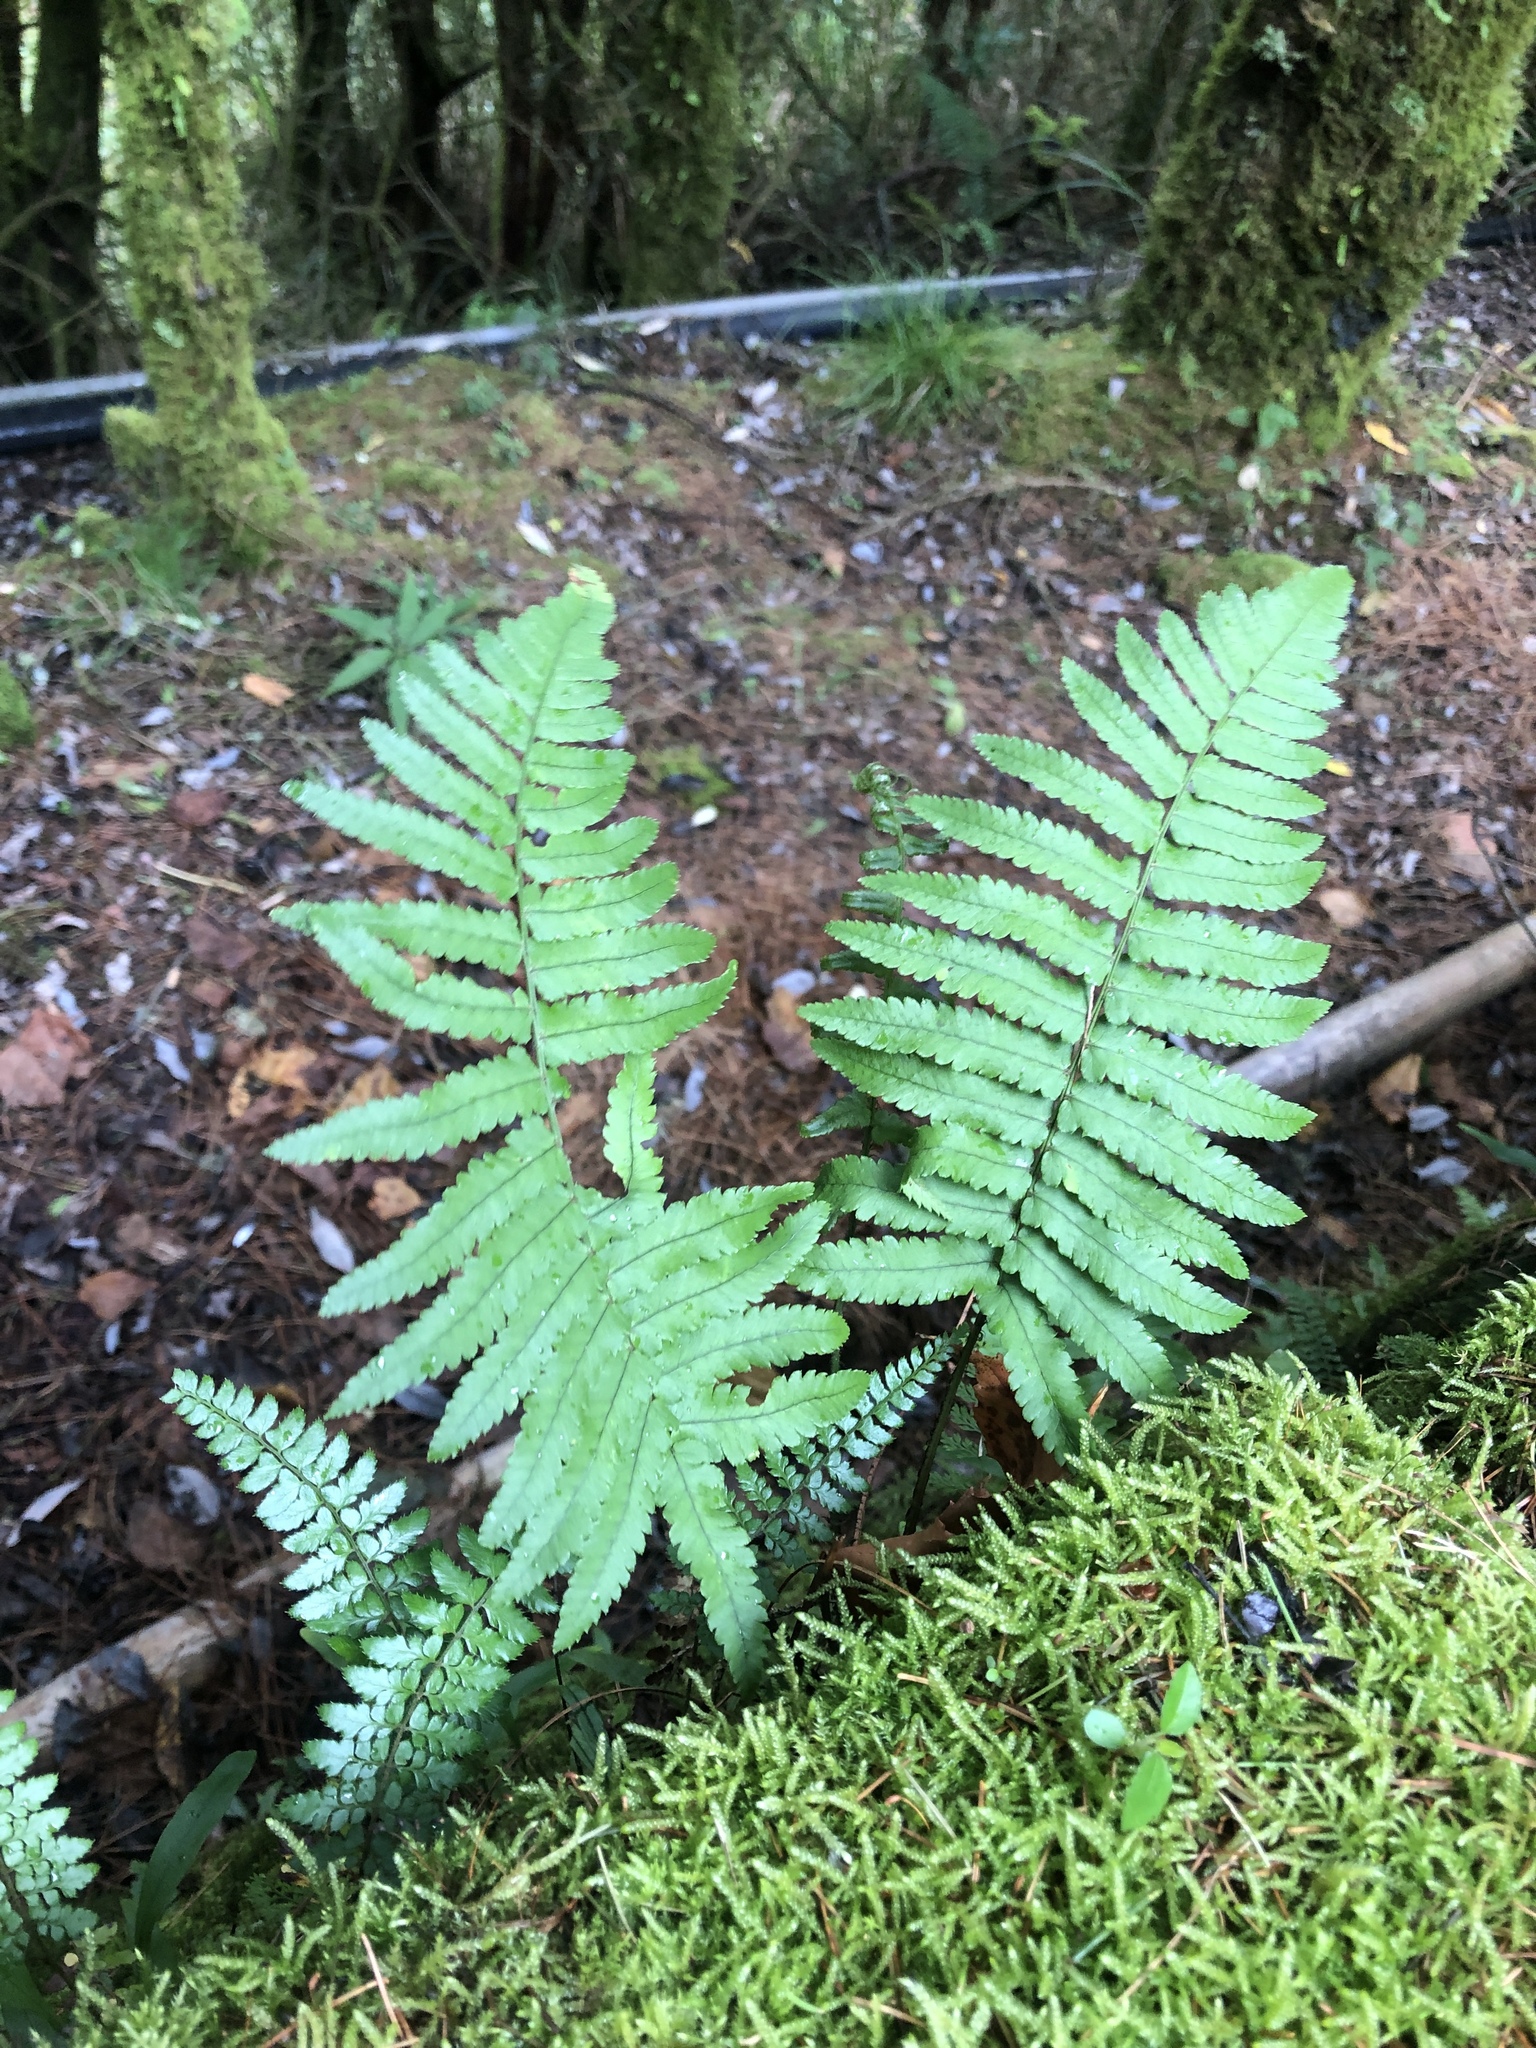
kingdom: Plantae
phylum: Tracheophyta
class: Polypodiopsida
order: Polypodiales
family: Dryopteridaceae
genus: Dryopteris
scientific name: Dryopteris cycadina
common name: Shaggy wood fern
